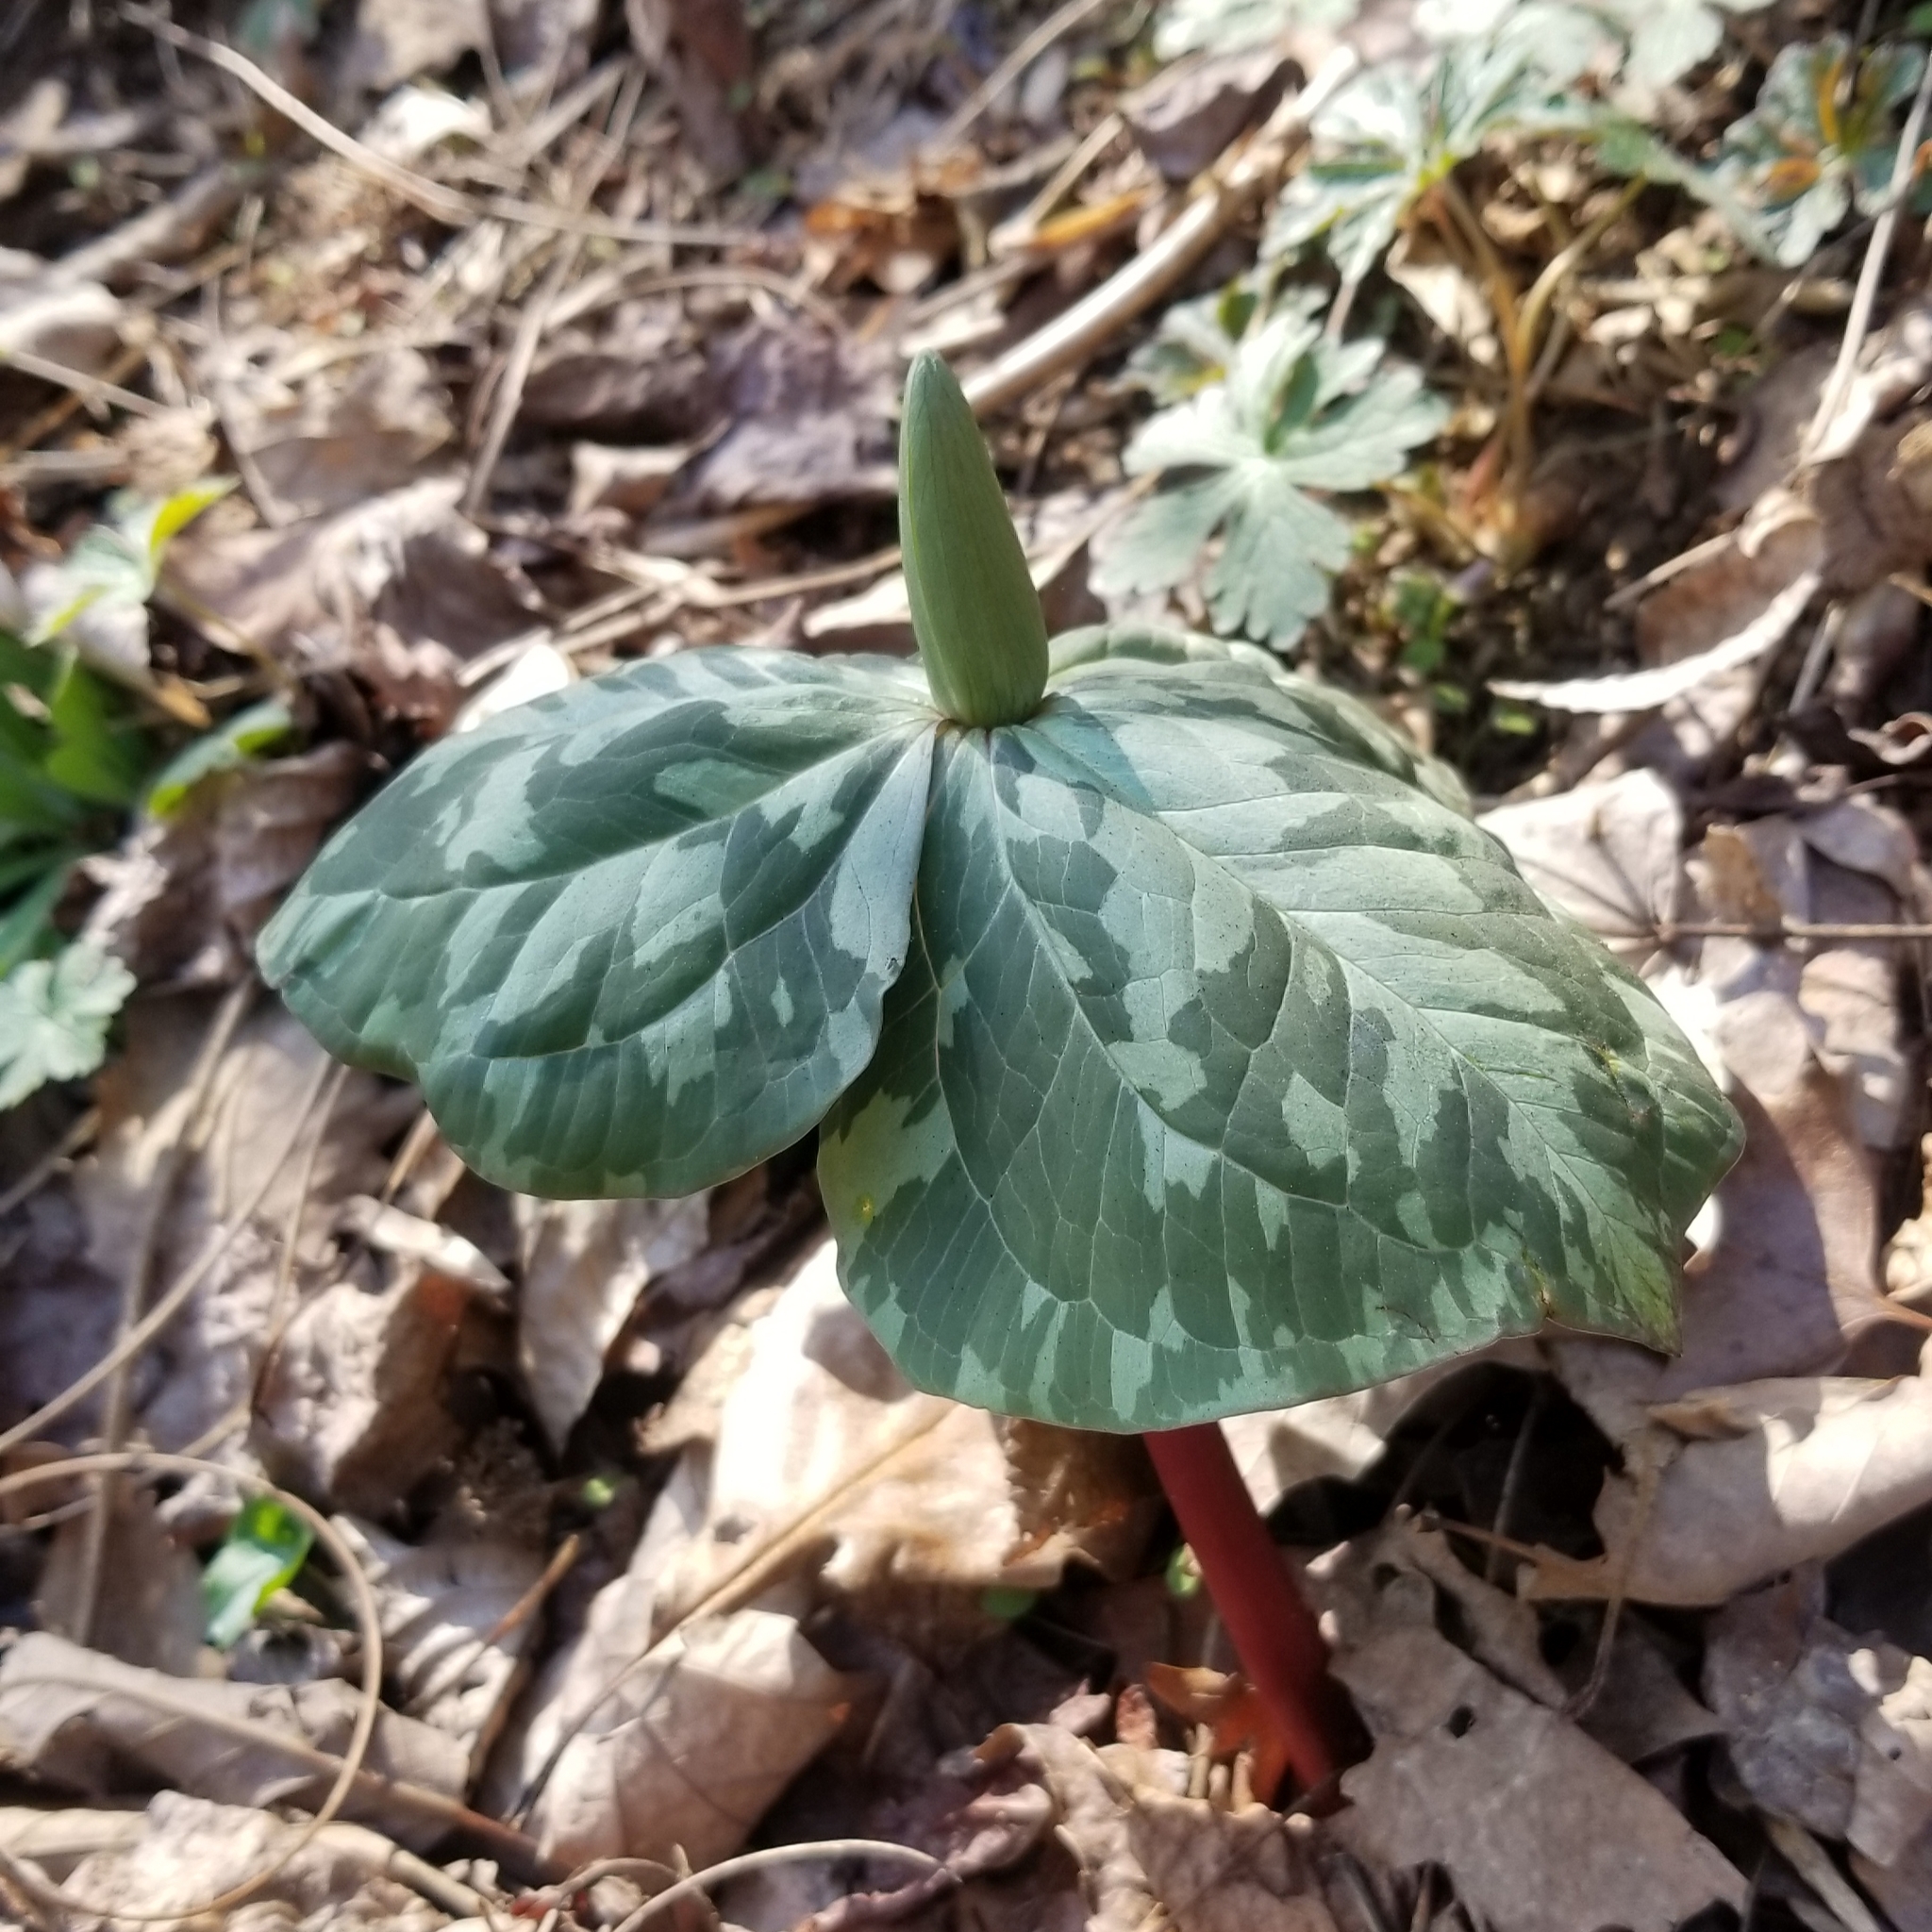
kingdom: Plantae
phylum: Tracheophyta
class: Liliopsida
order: Liliales
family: Melanthiaceae
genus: Trillium
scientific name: Trillium cuneatum
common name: Cuneate trillium
